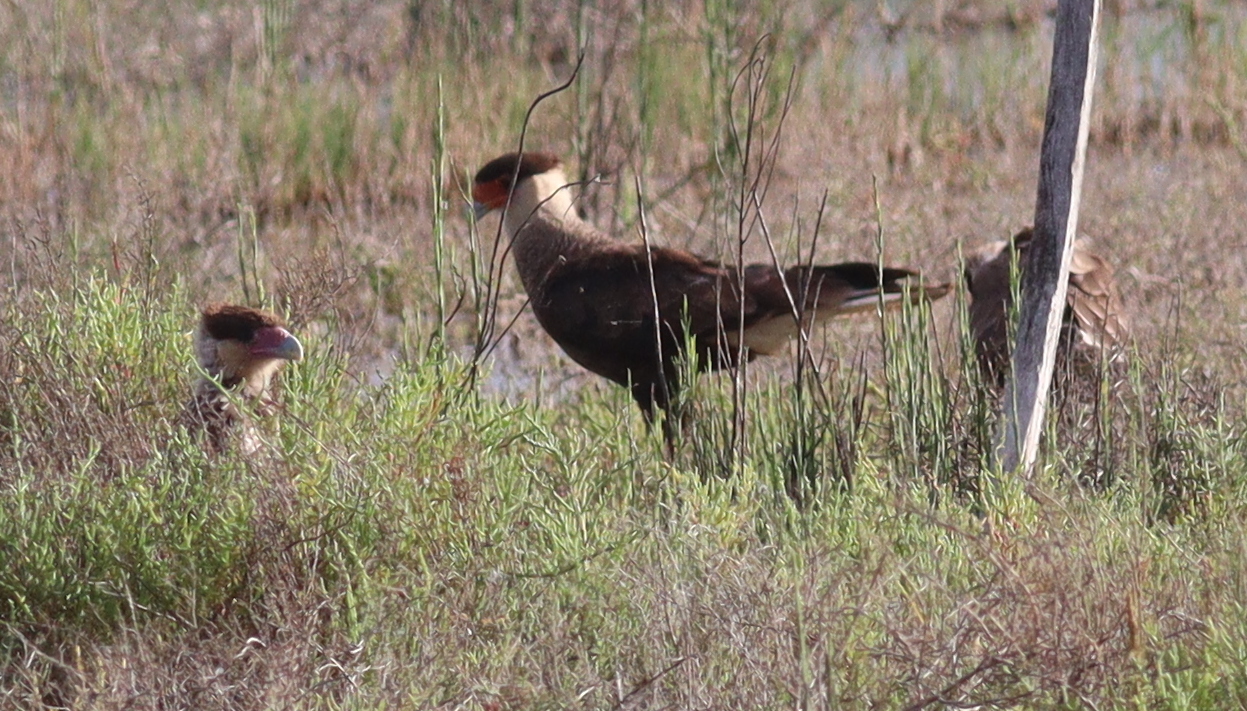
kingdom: Animalia
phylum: Chordata
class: Aves
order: Falconiformes
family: Falconidae
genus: Caracara
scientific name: Caracara plancus
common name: Southern caracara
